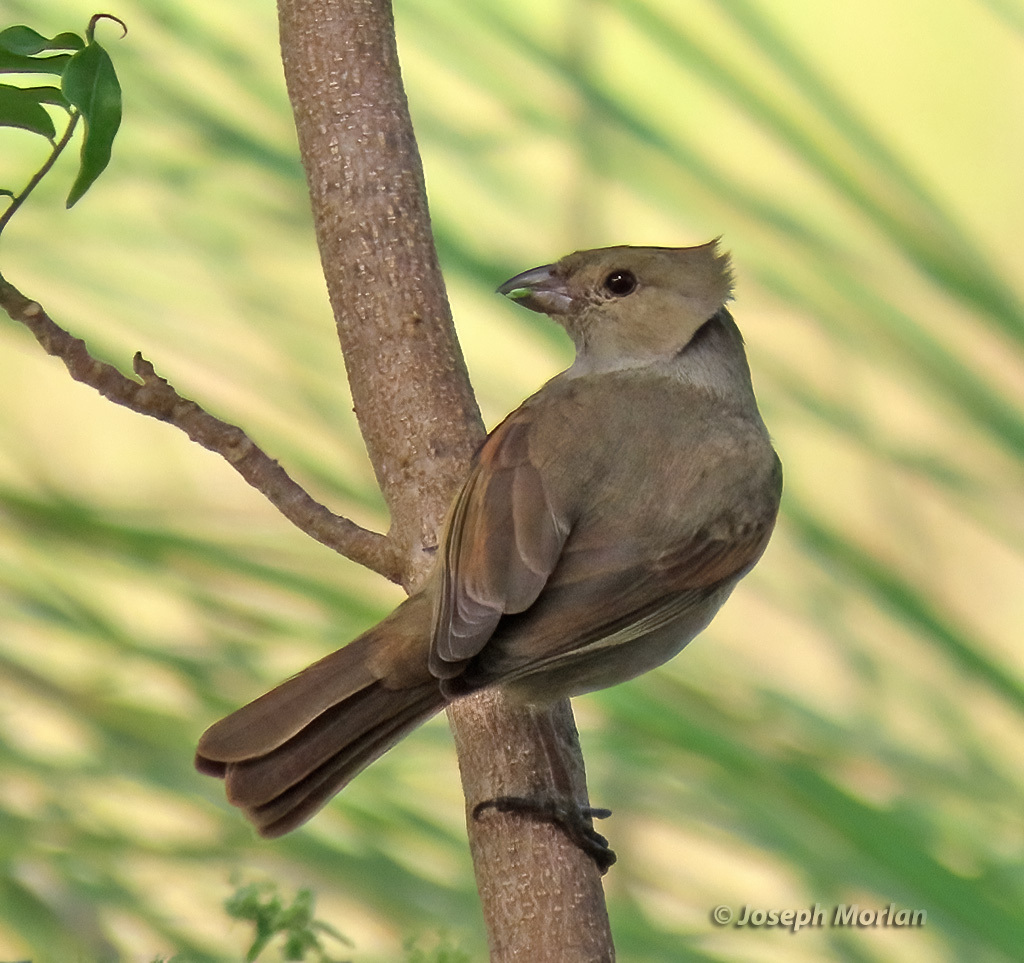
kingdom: Animalia
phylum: Chordata
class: Aves
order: Passeriformes
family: Thraupidae
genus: Loxigilla
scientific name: Loxigilla barbadensis
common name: Barbados bullfinch
